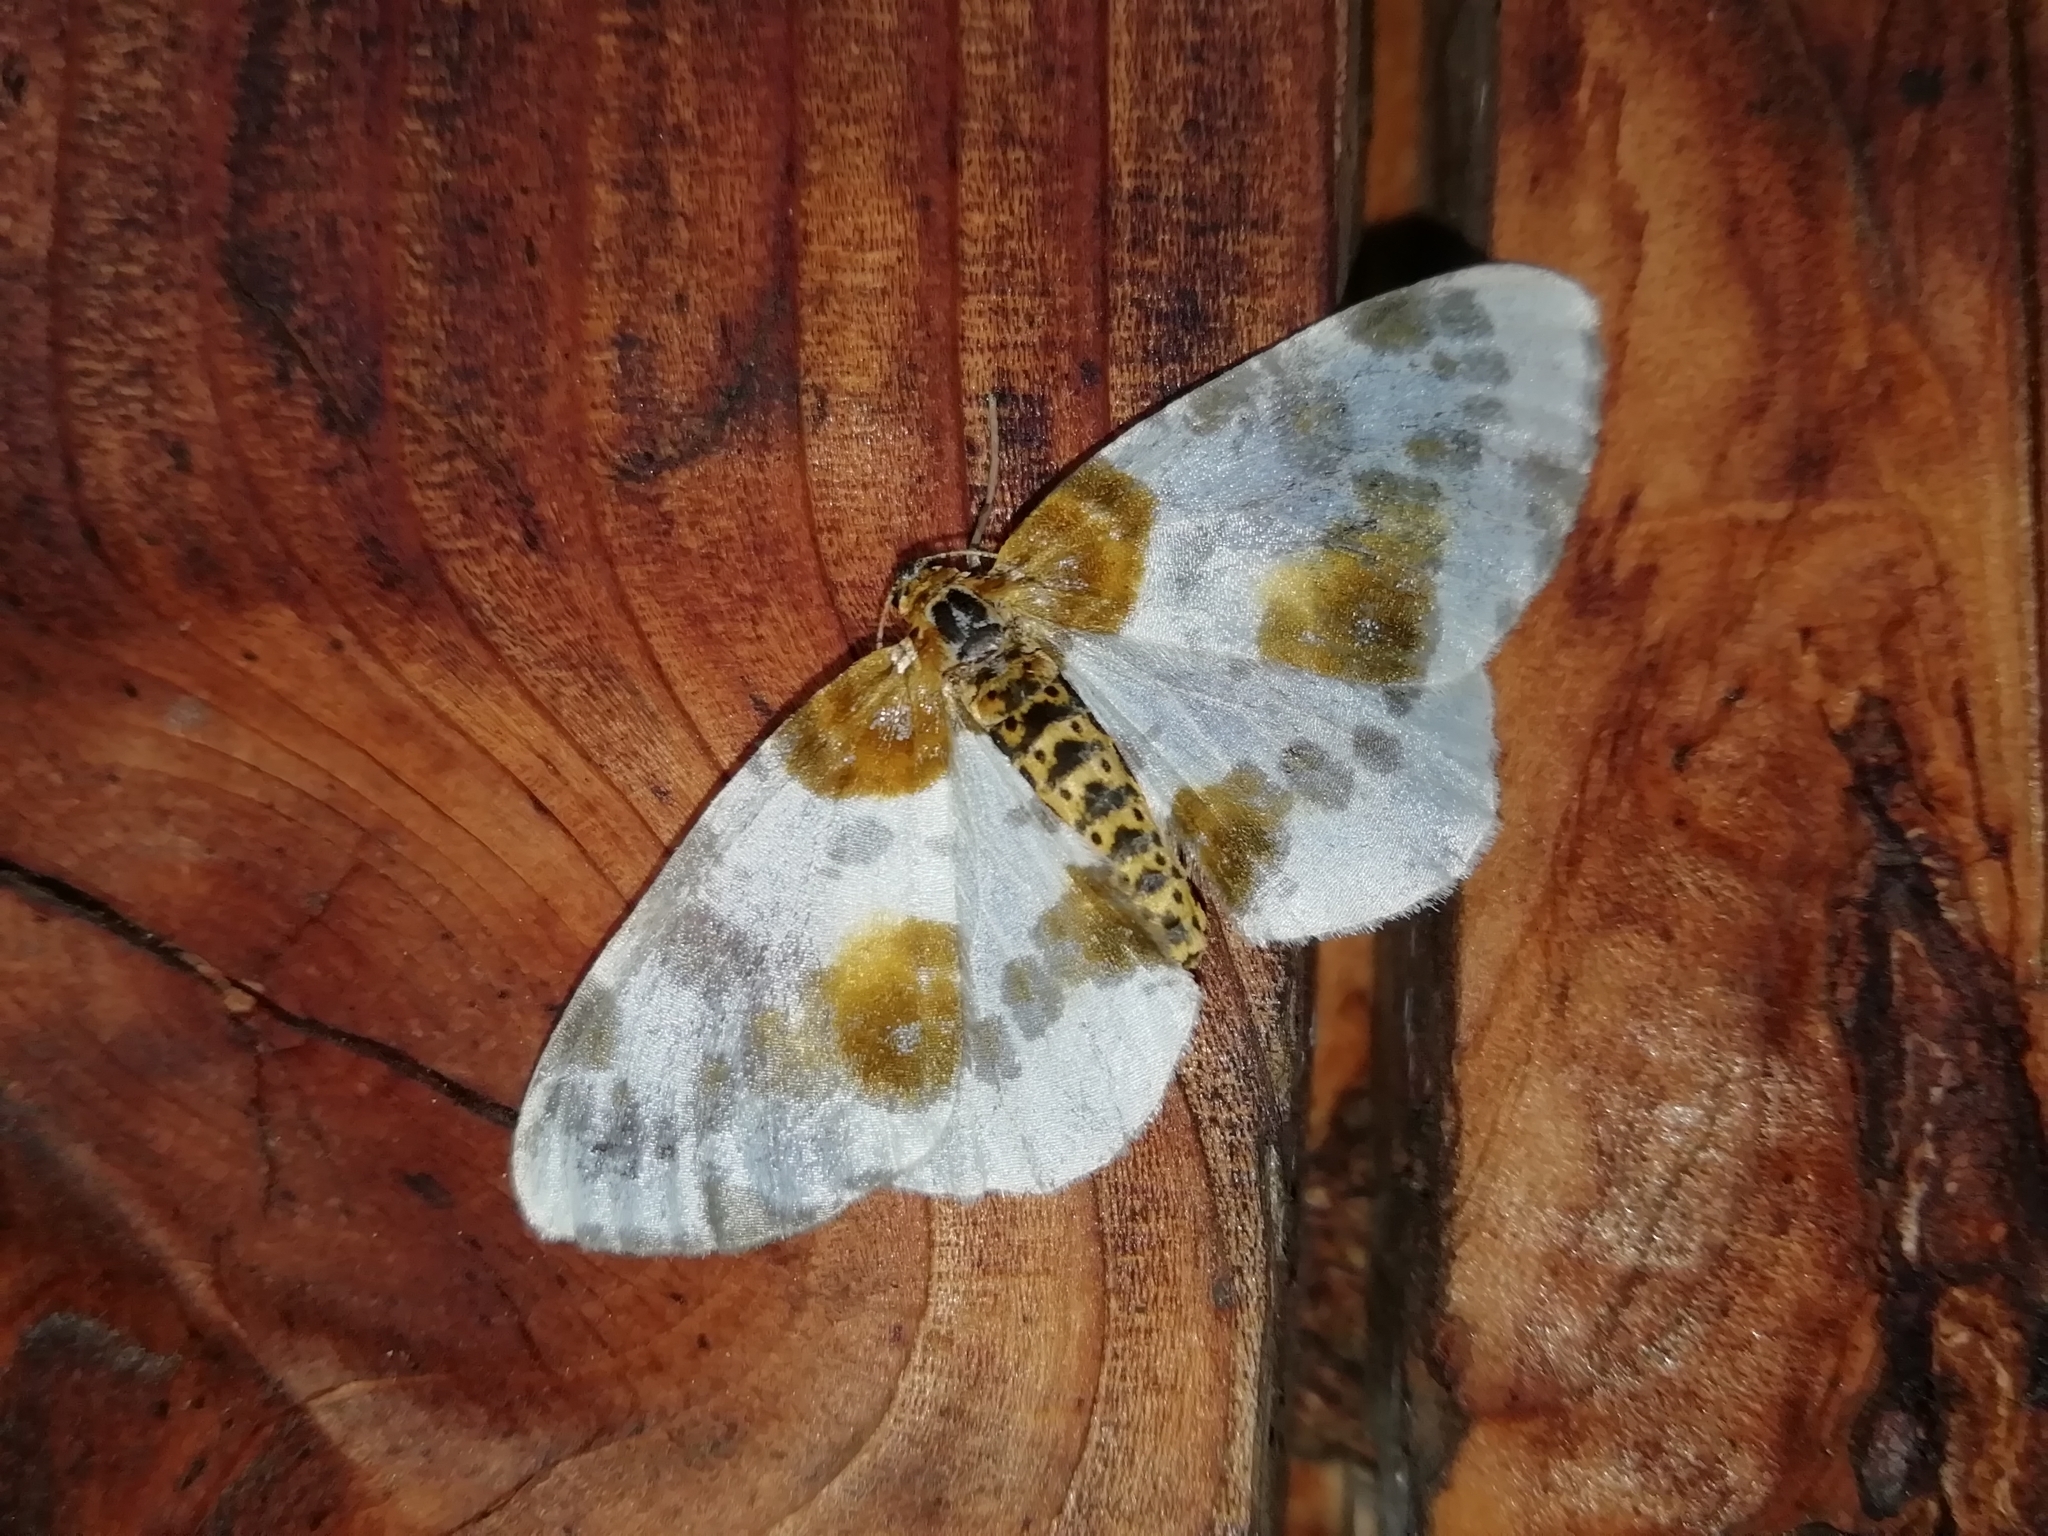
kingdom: Animalia
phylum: Arthropoda
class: Insecta
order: Lepidoptera
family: Geometridae
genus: Abraxas
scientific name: Abraxas sylvata
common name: Clouded magpie
